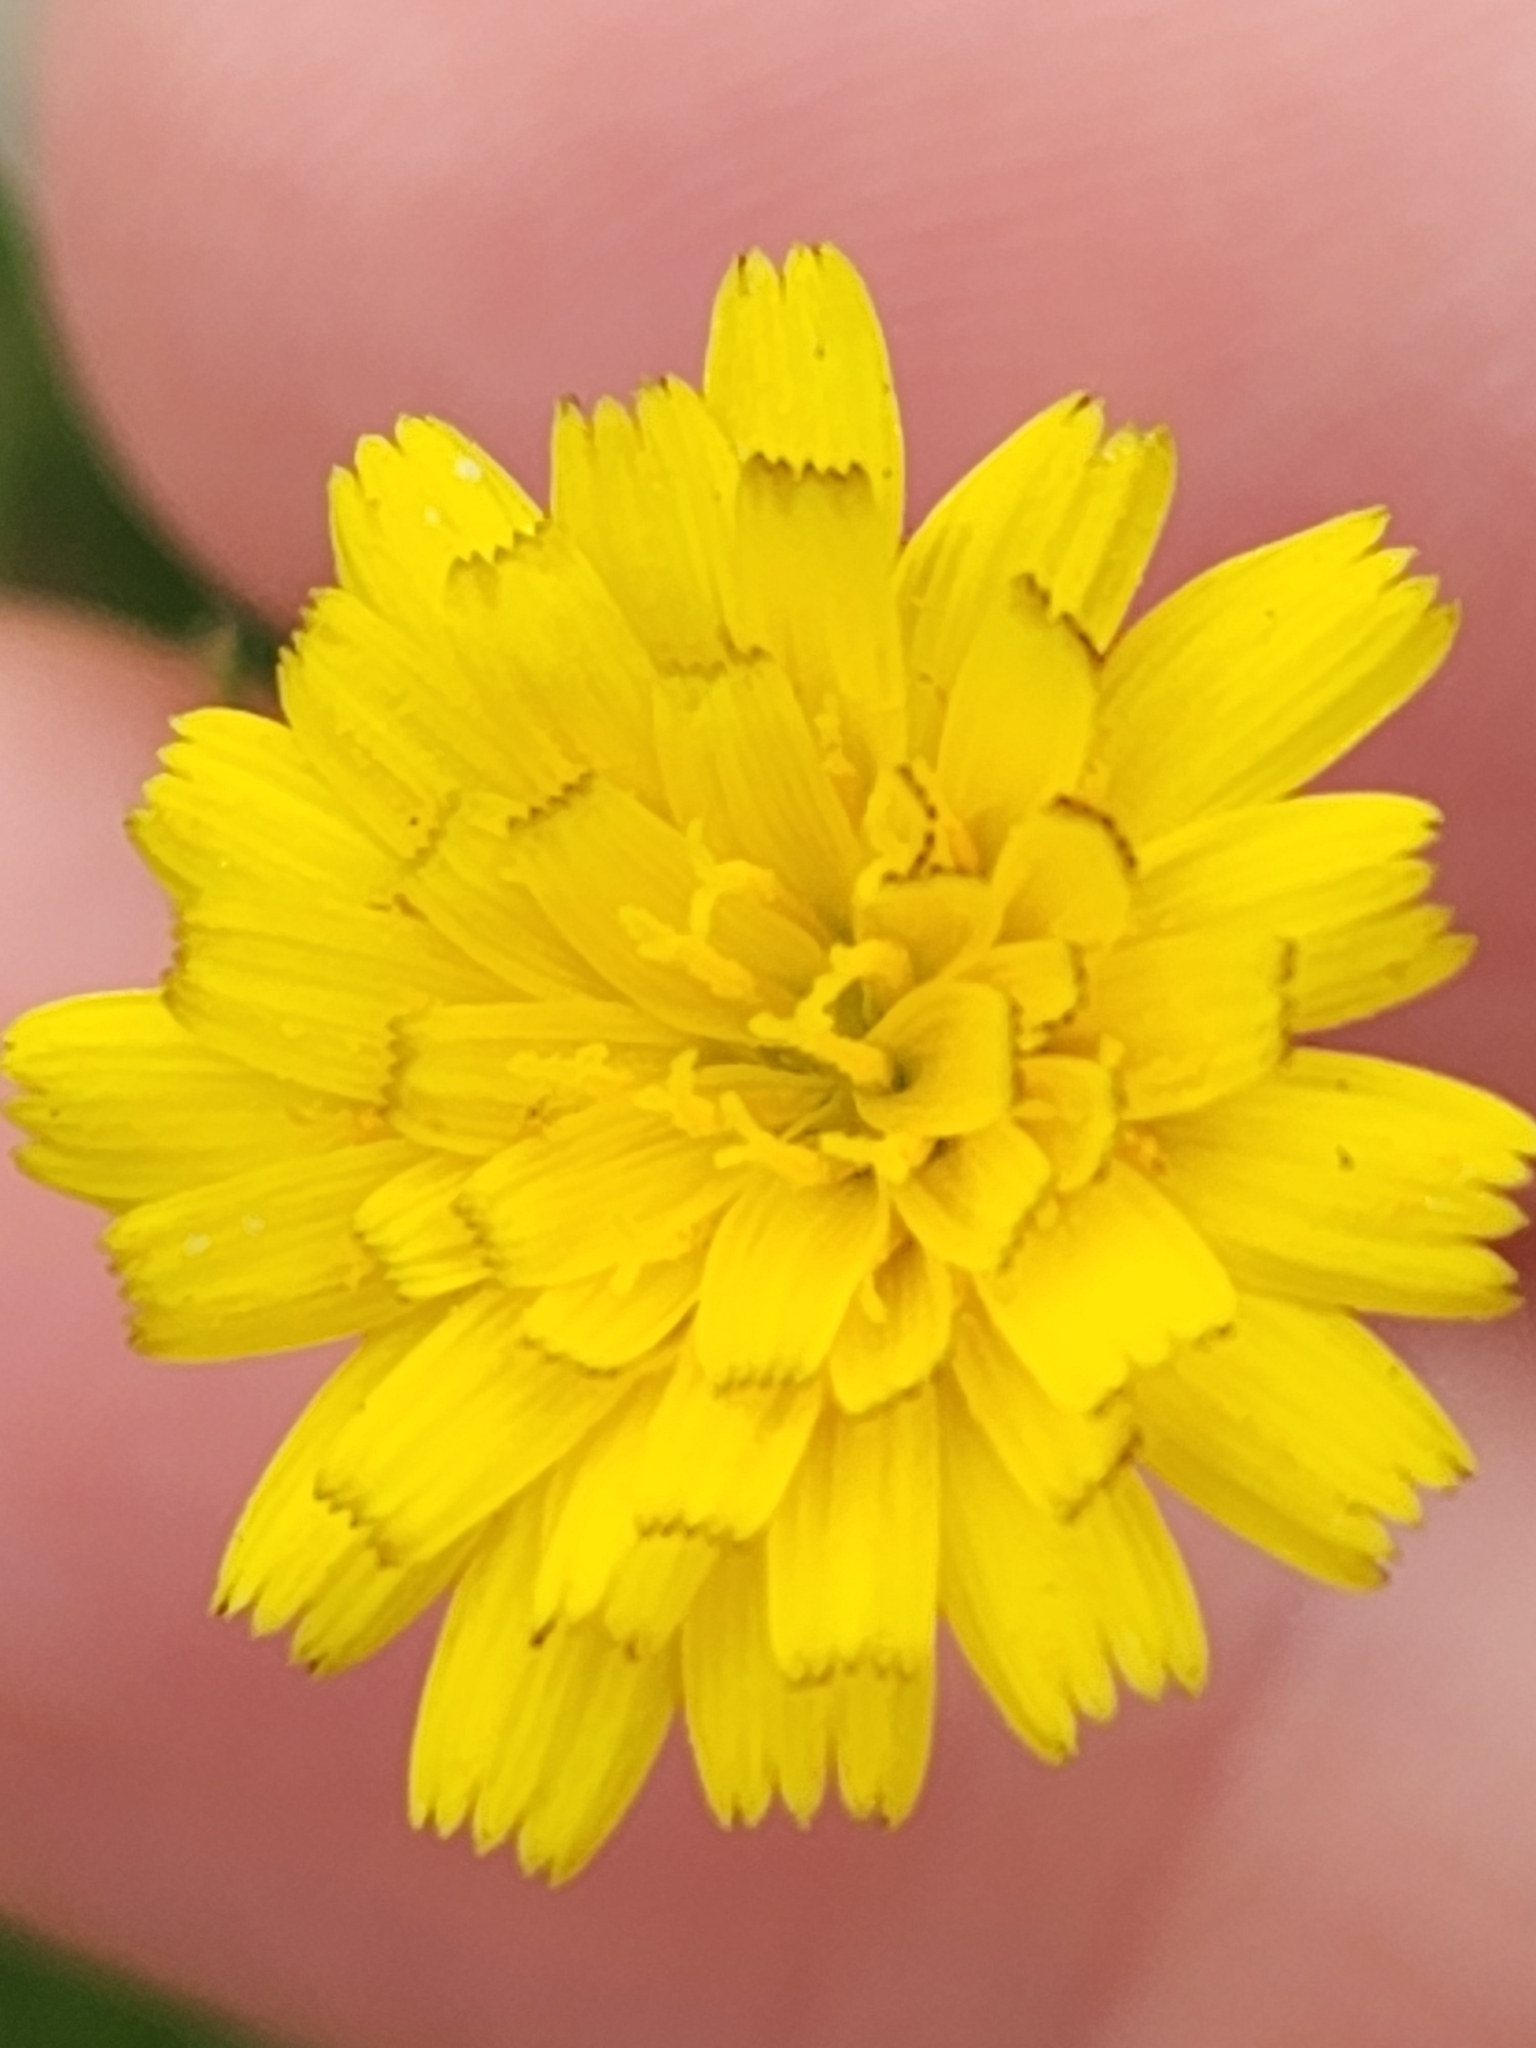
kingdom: Plantae
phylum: Tracheophyta
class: Magnoliopsida
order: Asterales
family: Asteraceae
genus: Hedypnois
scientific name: Hedypnois rhagadioloides
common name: Cretan weed
